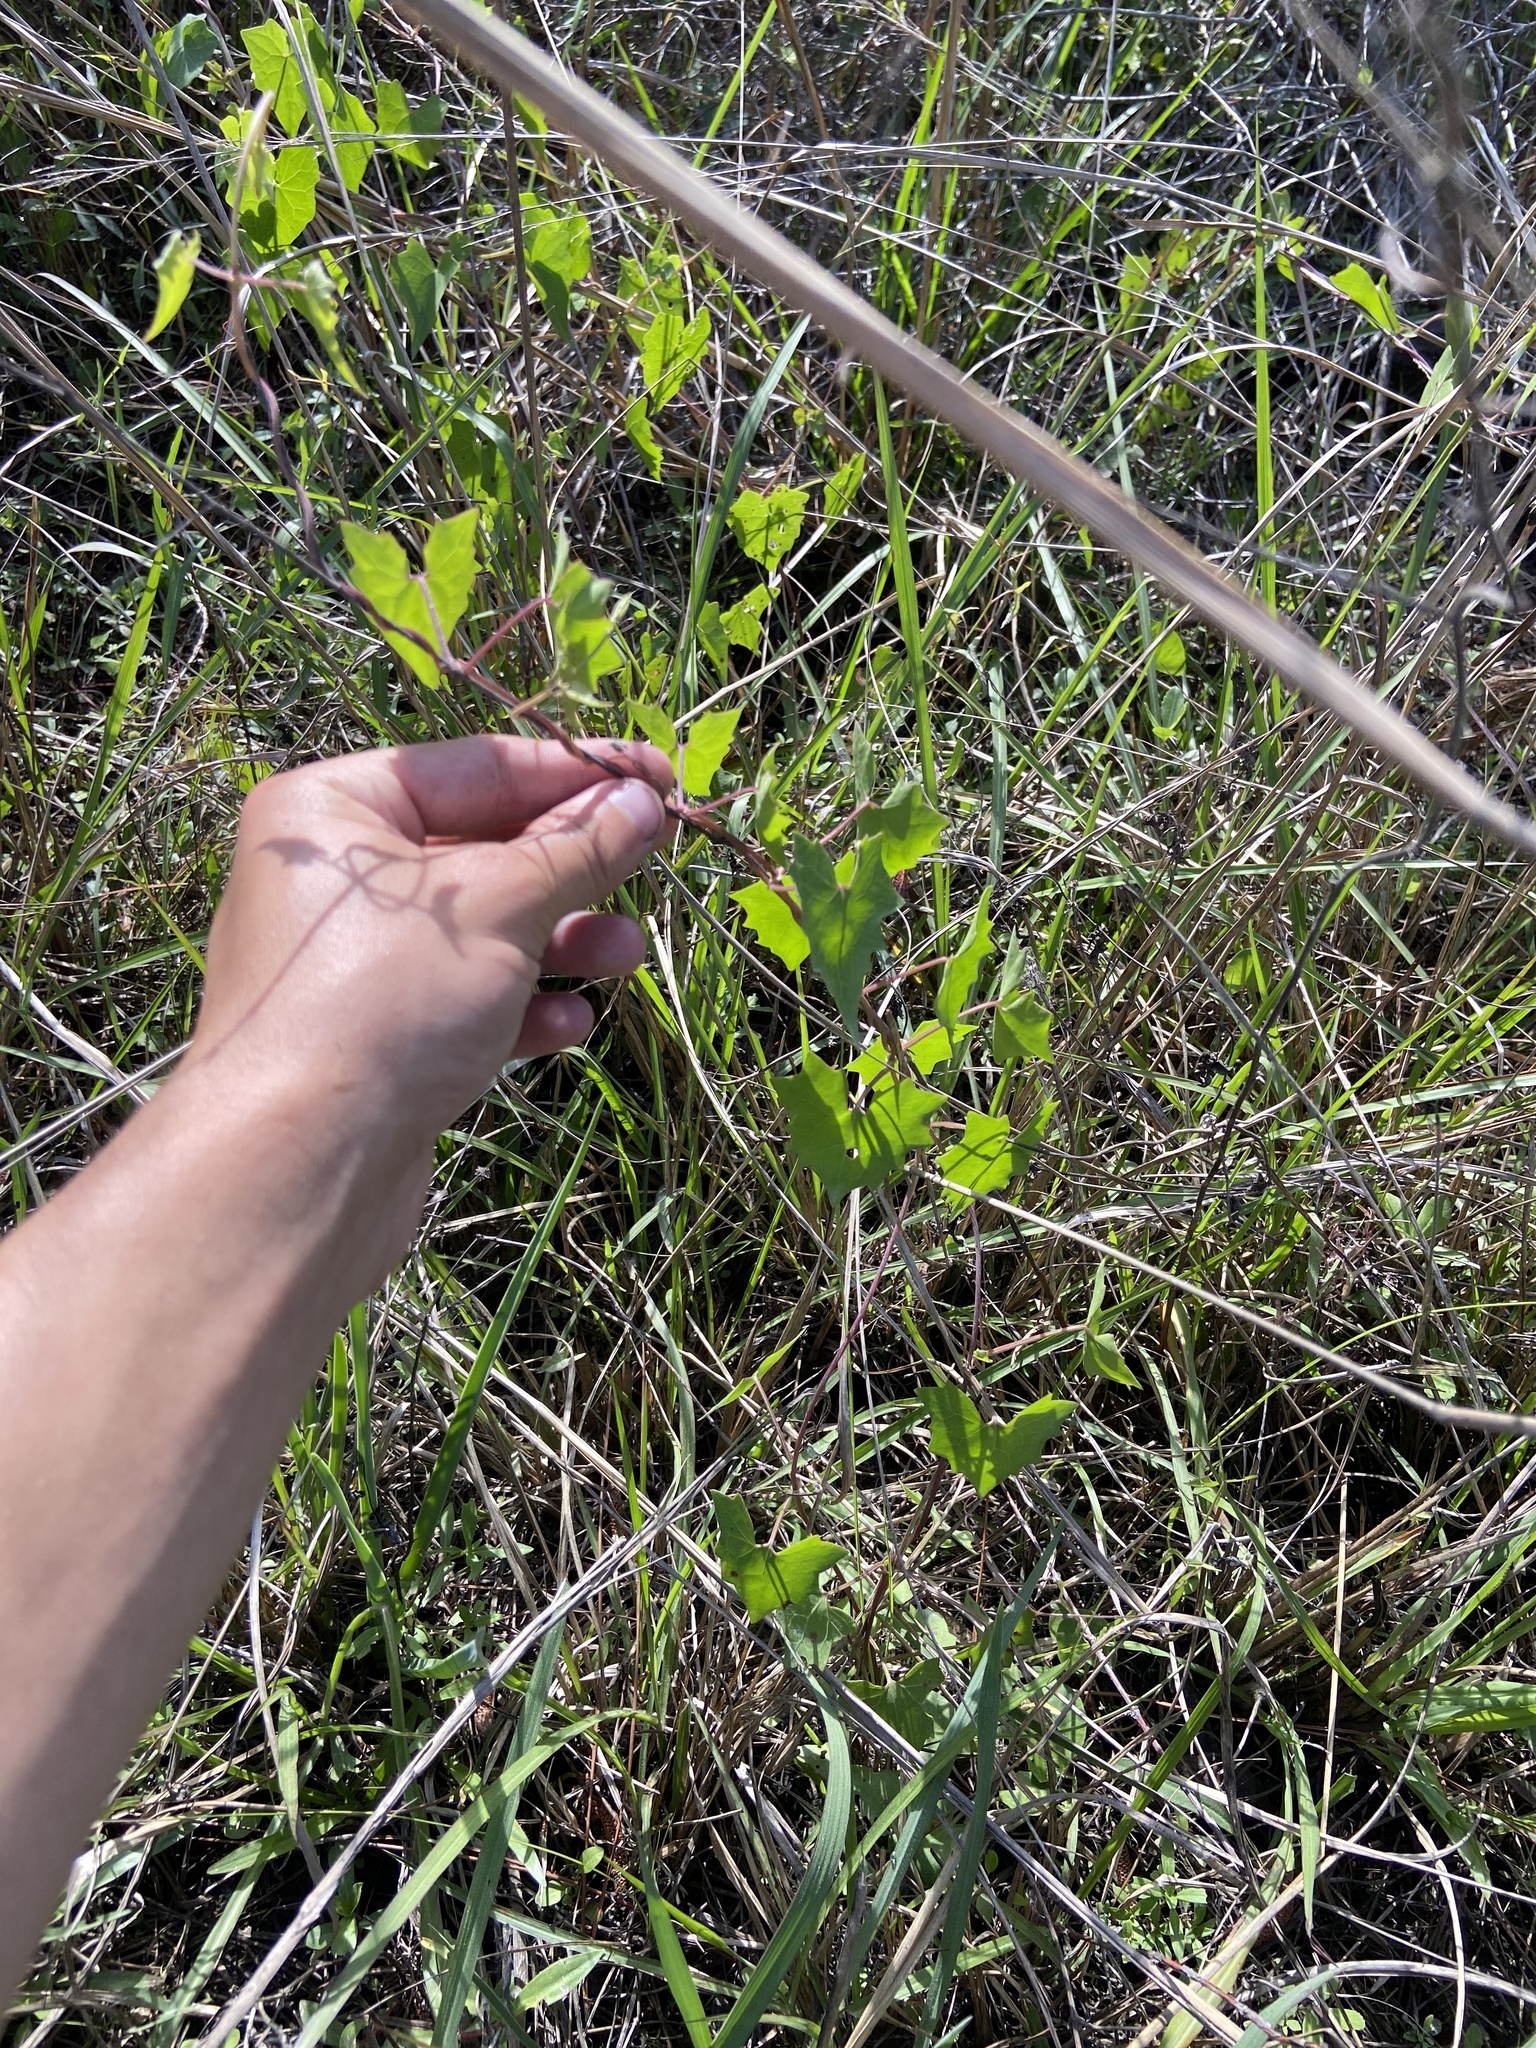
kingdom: Plantae
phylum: Tracheophyta
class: Magnoliopsida
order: Asterales
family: Asteraceae
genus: Mikania
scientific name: Mikania scandens
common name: Climbing hempvine
